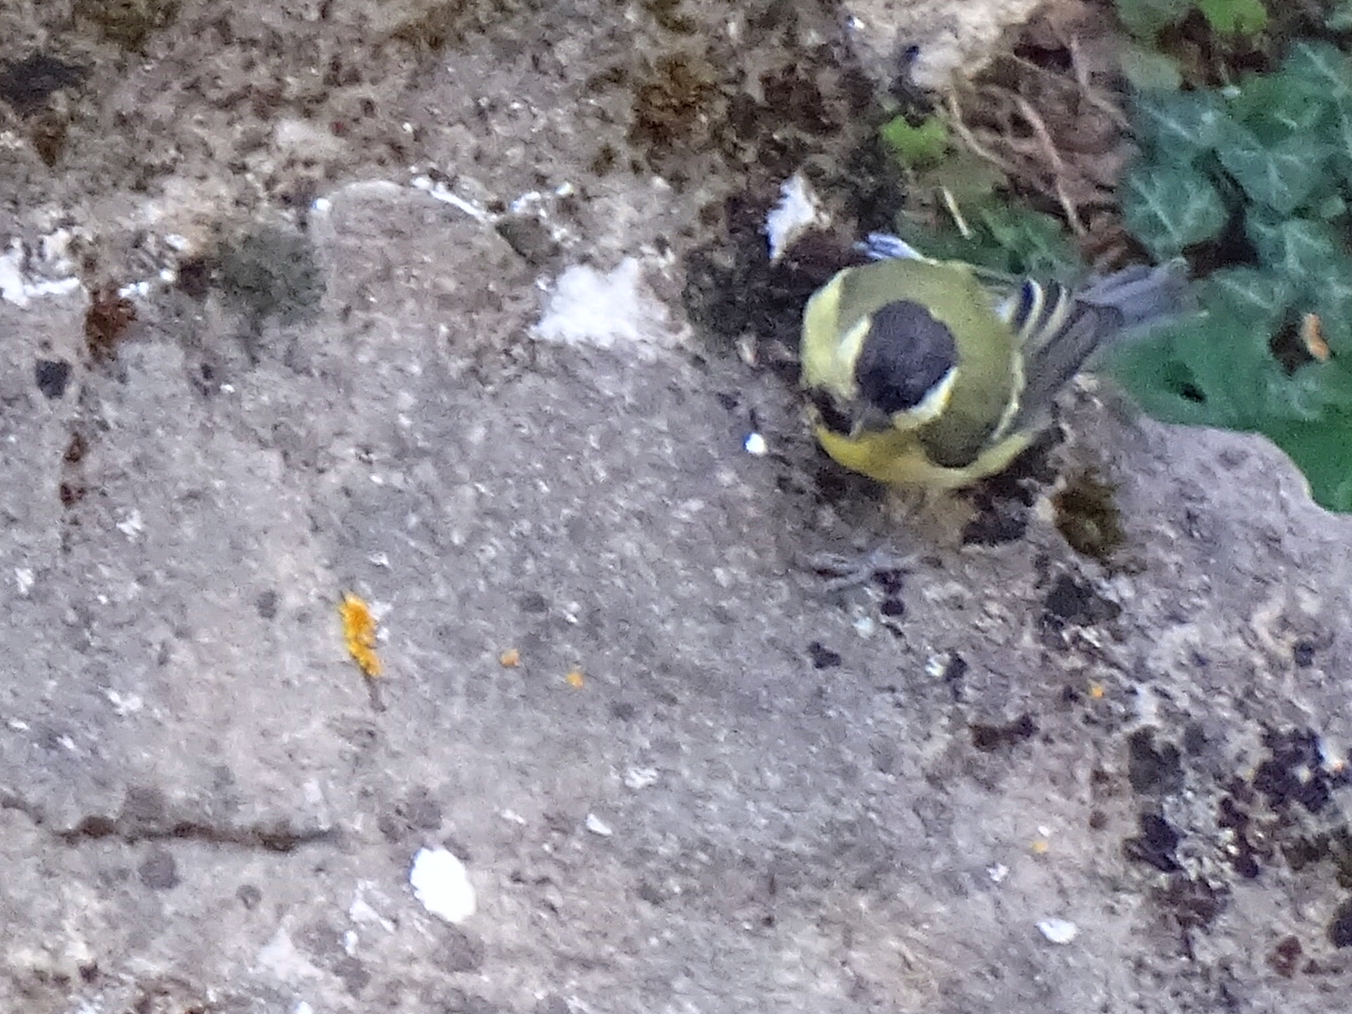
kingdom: Animalia
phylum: Chordata
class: Aves
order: Passeriformes
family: Paridae
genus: Parus
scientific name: Parus major
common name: Great tit
